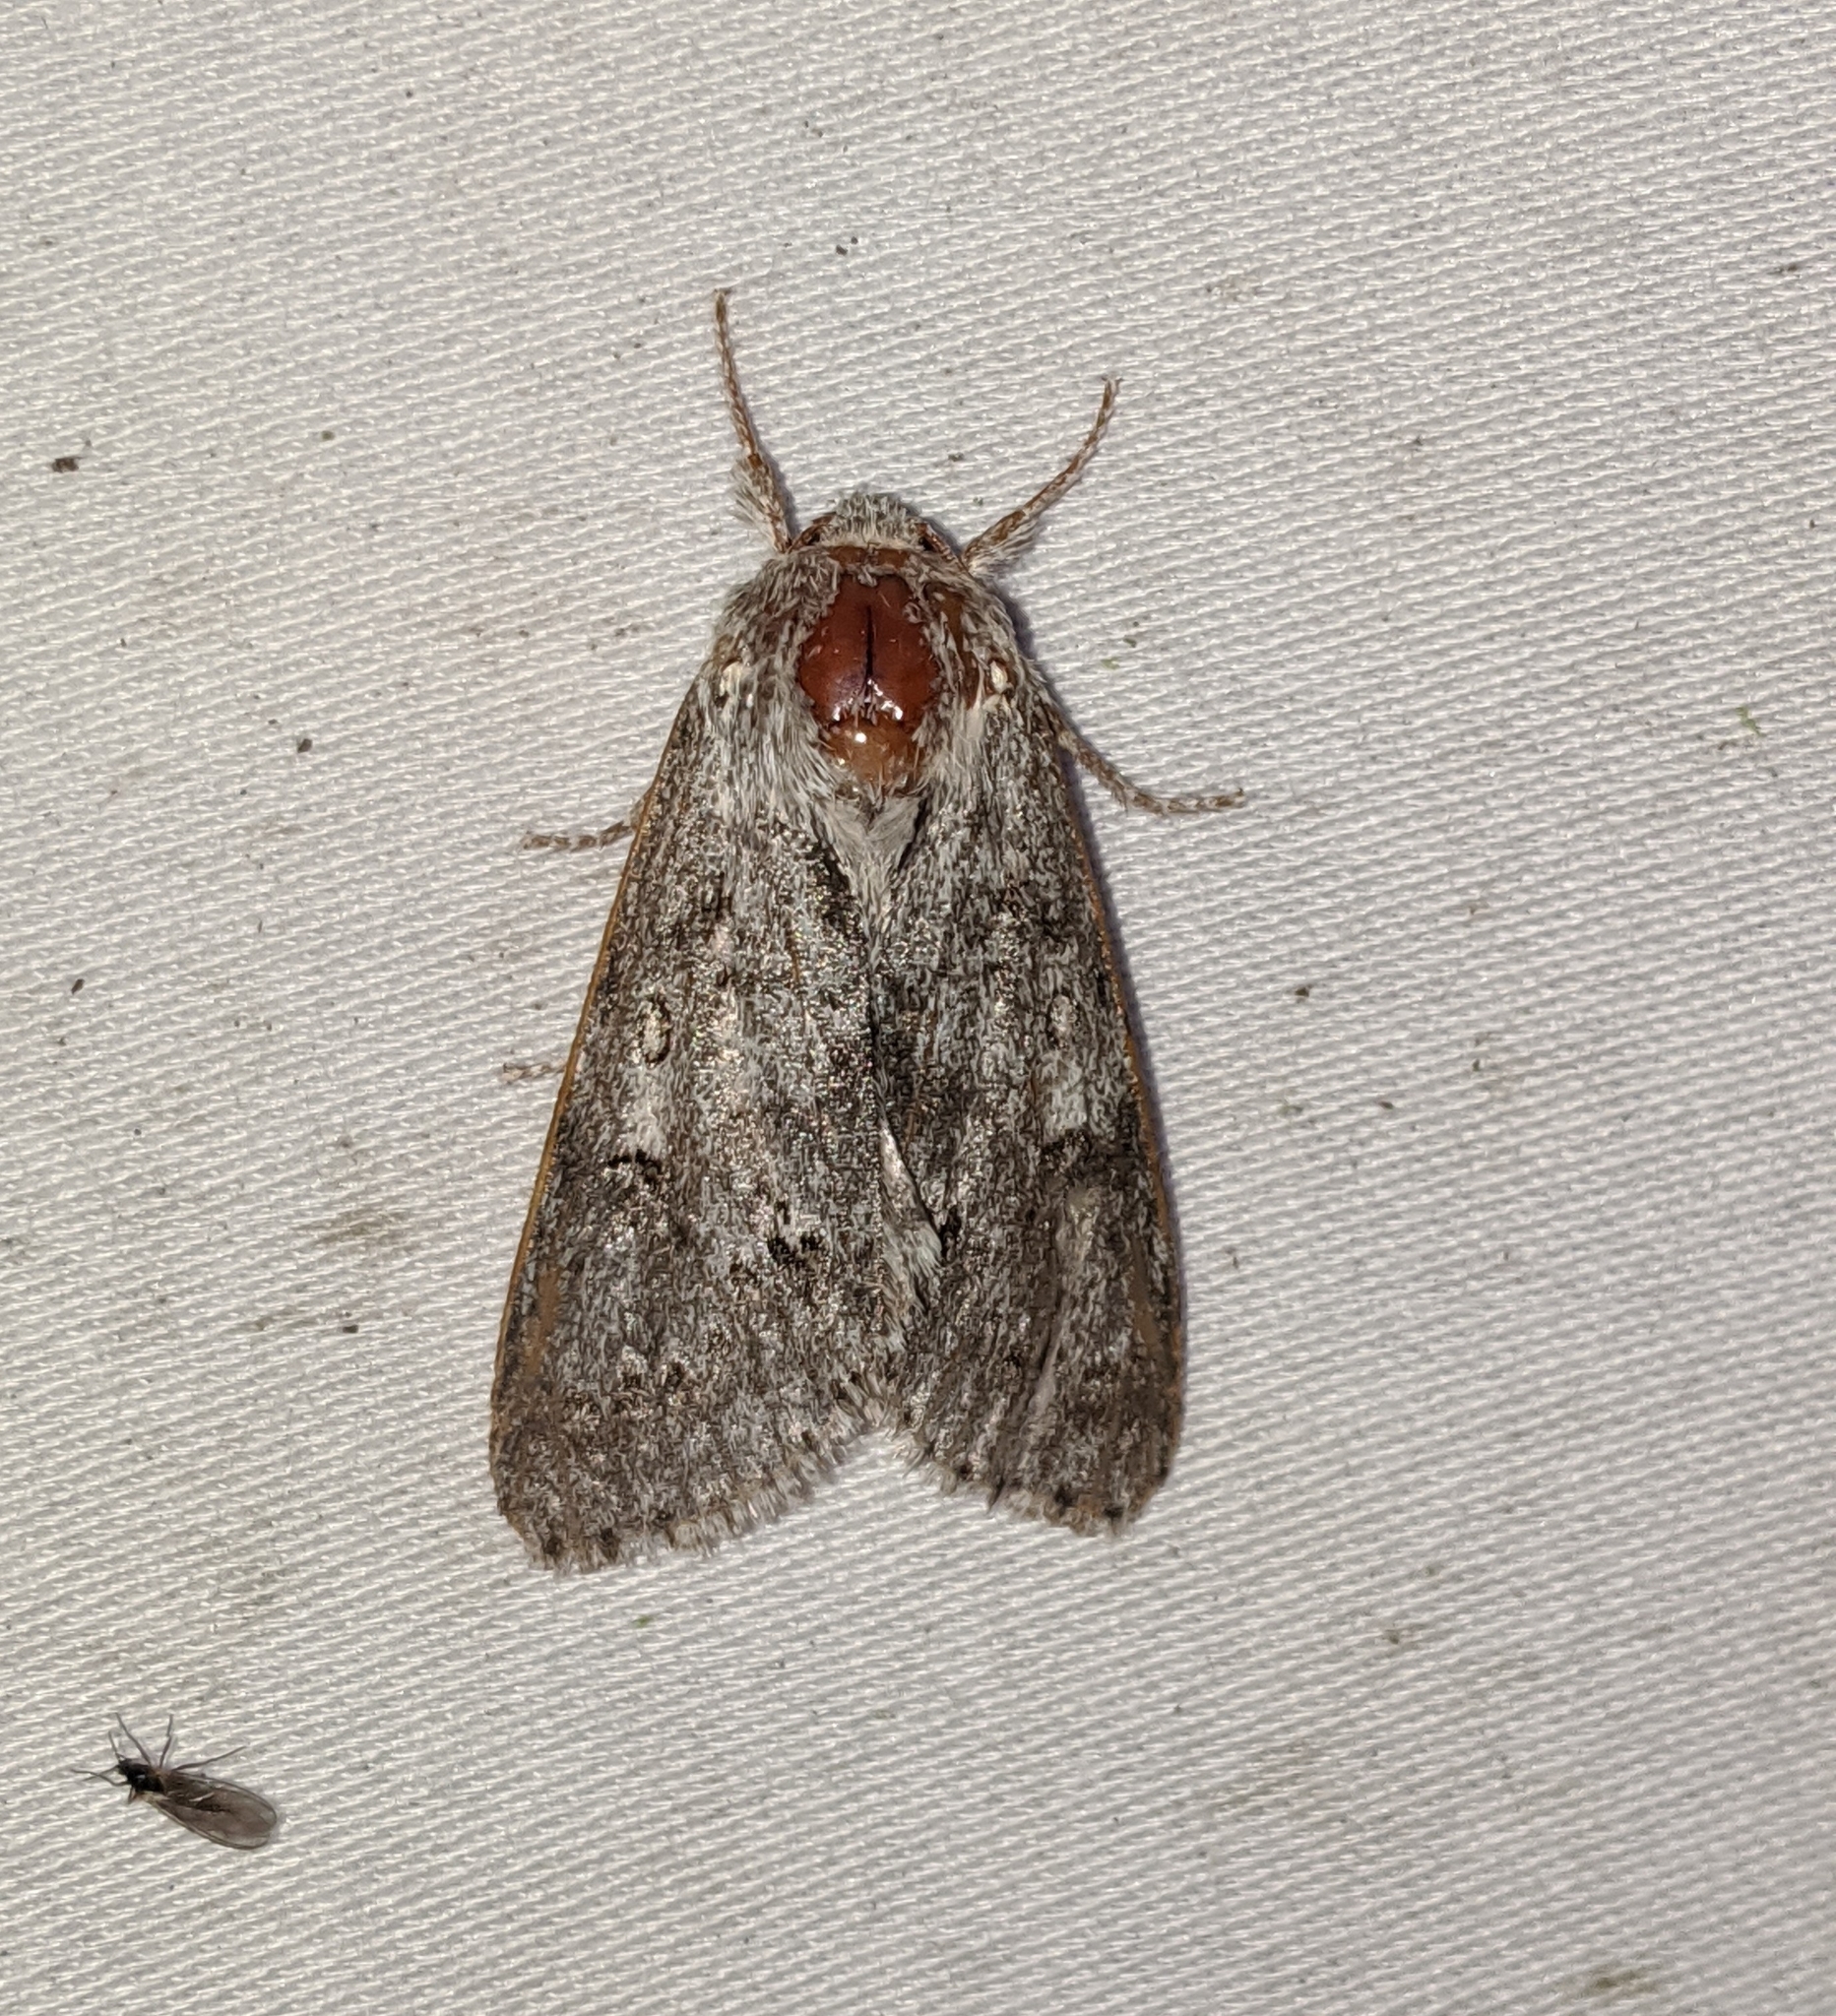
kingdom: Animalia
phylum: Arthropoda
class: Insecta
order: Lepidoptera
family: Noctuidae
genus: Acronicta
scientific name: Acronicta insita
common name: Large gray dagger
